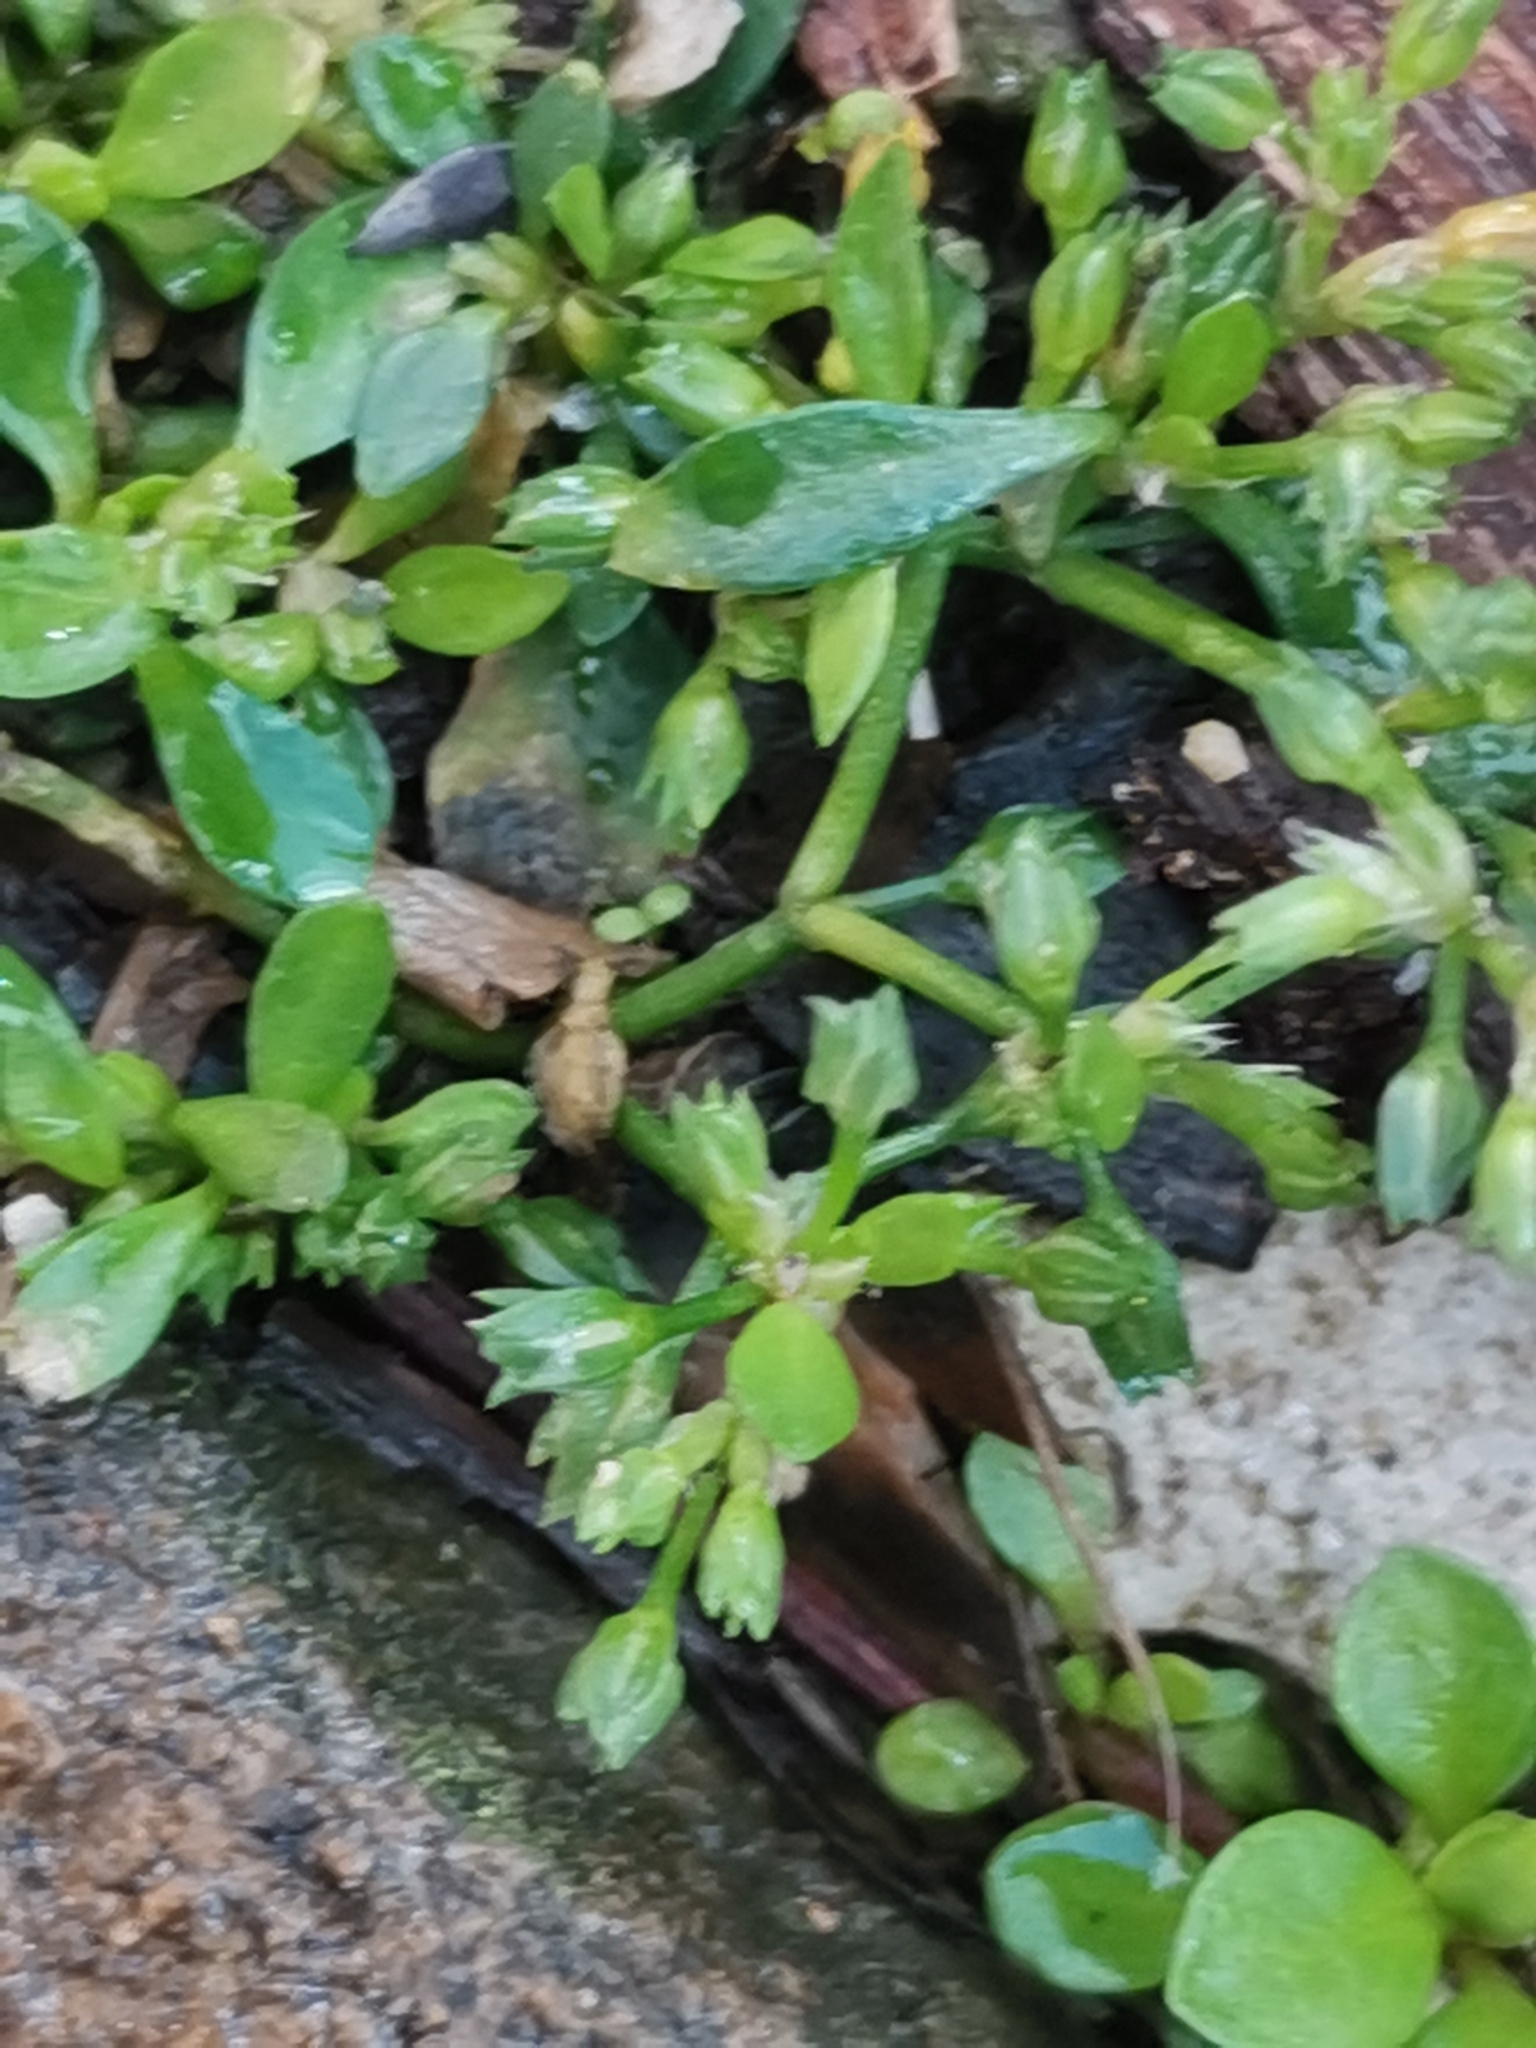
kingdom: Plantae
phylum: Tracheophyta
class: Magnoliopsida
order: Caryophyllales
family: Caryophyllaceae
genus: Polycarpon
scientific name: Polycarpon tetraphyllum
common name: Four-leaved all-seed
